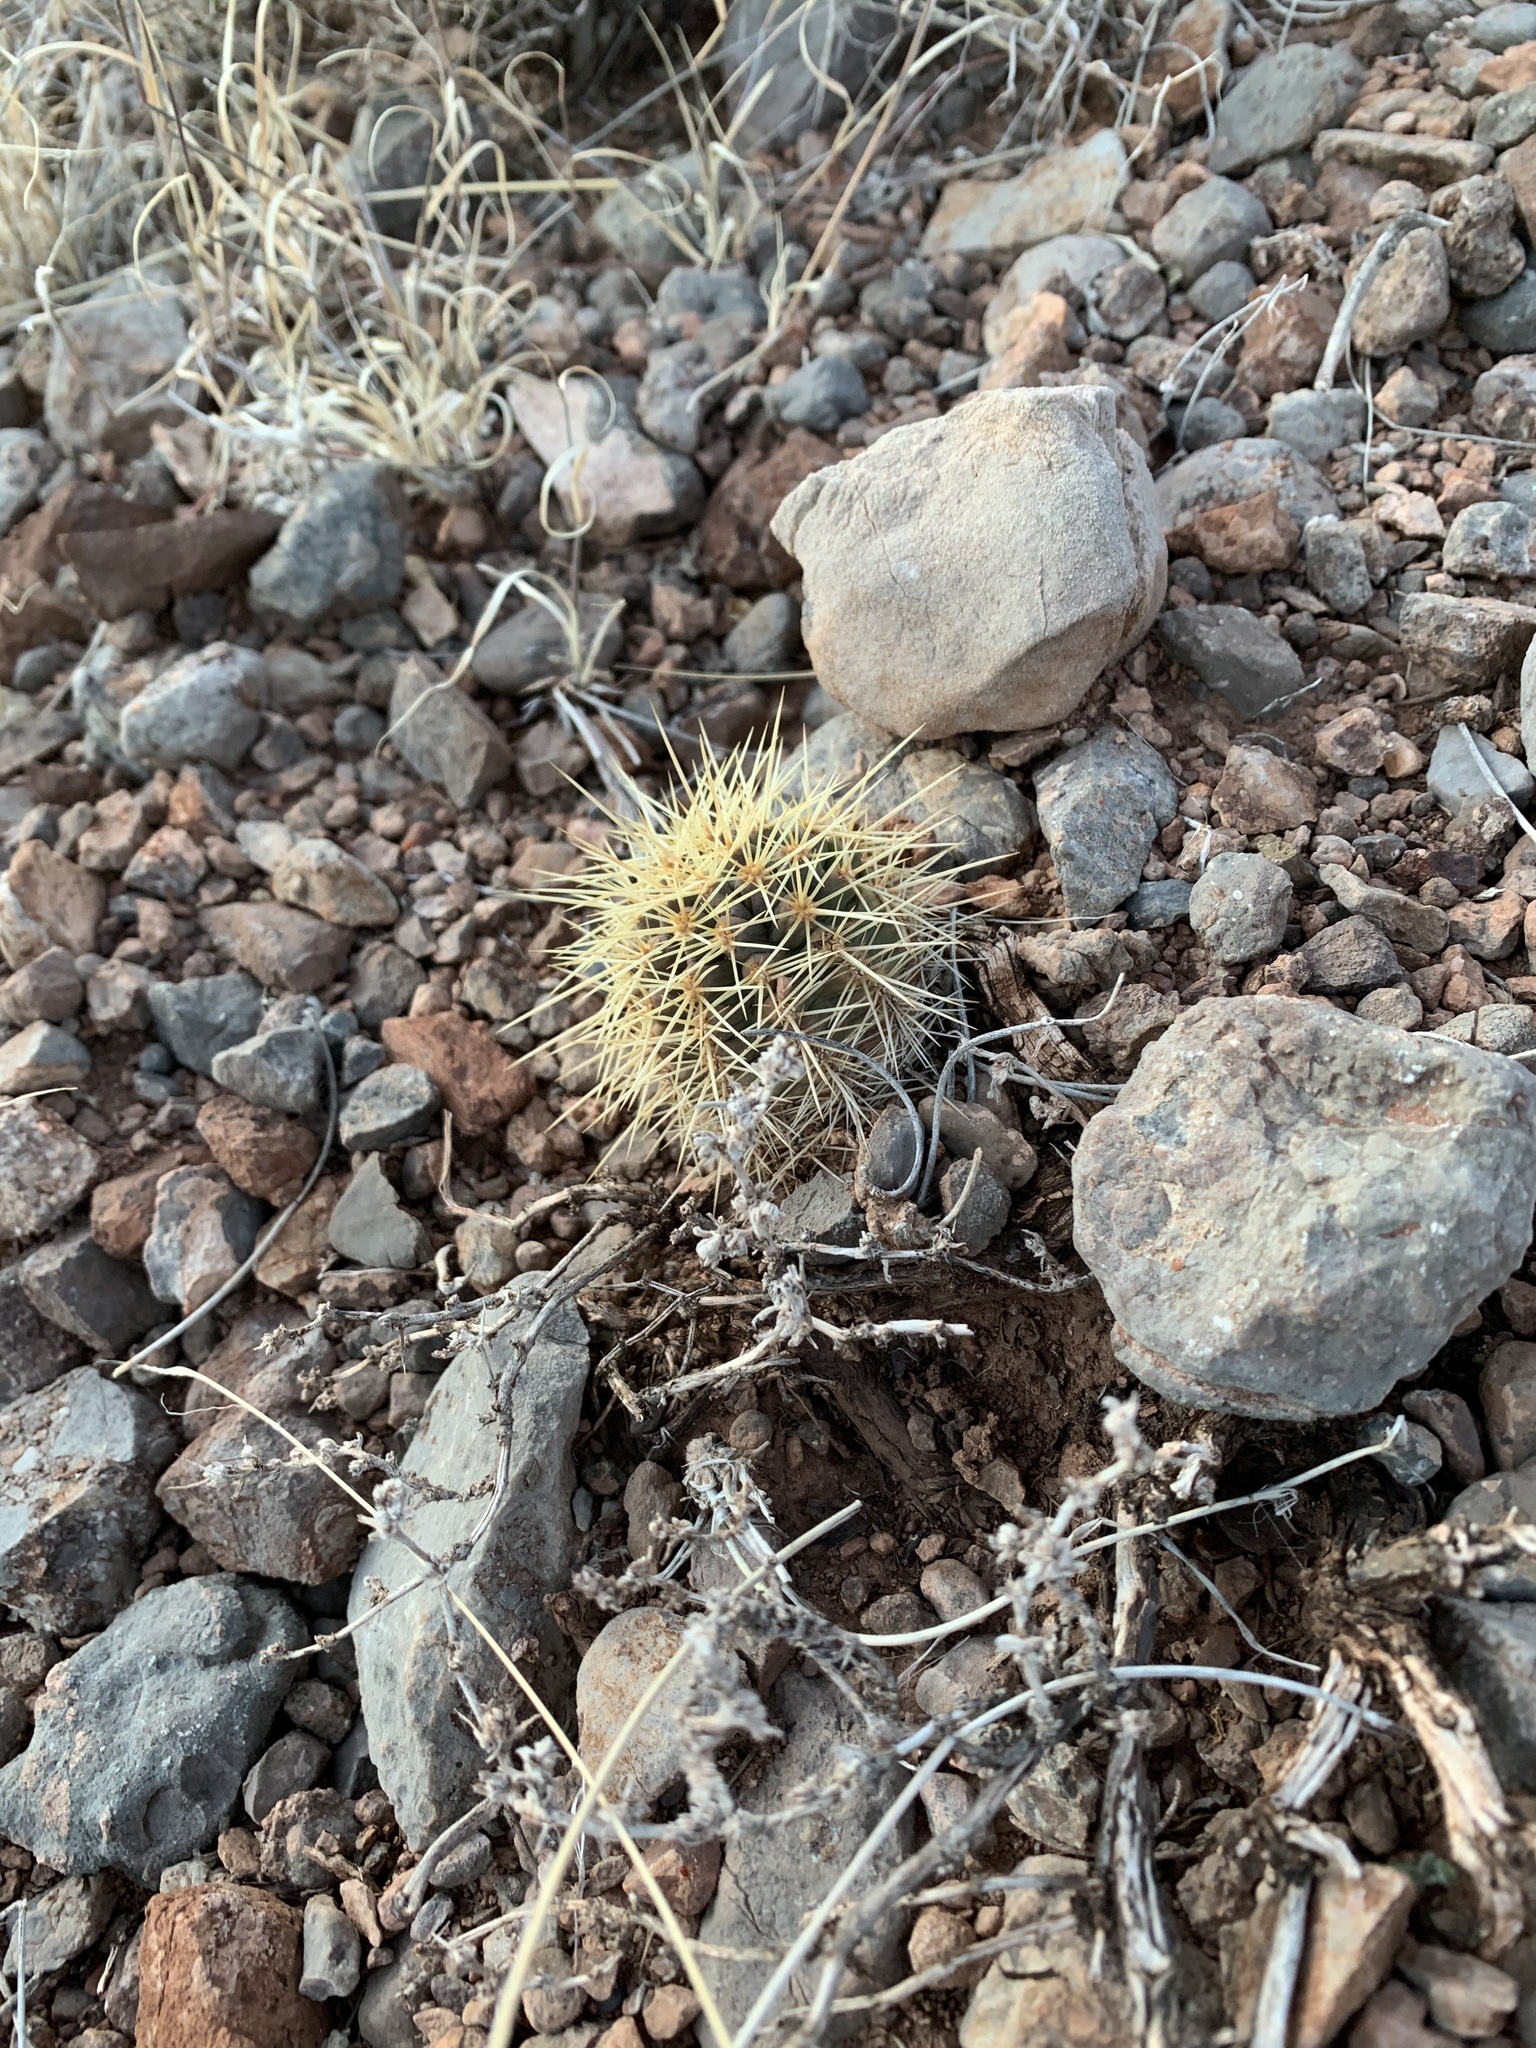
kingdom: Plantae
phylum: Tracheophyta
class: Magnoliopsida
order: Caryophyllales
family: Cactaceae
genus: Echinocereus
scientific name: Echinocereus coccineus
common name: Scarlet hedgehog cactus
